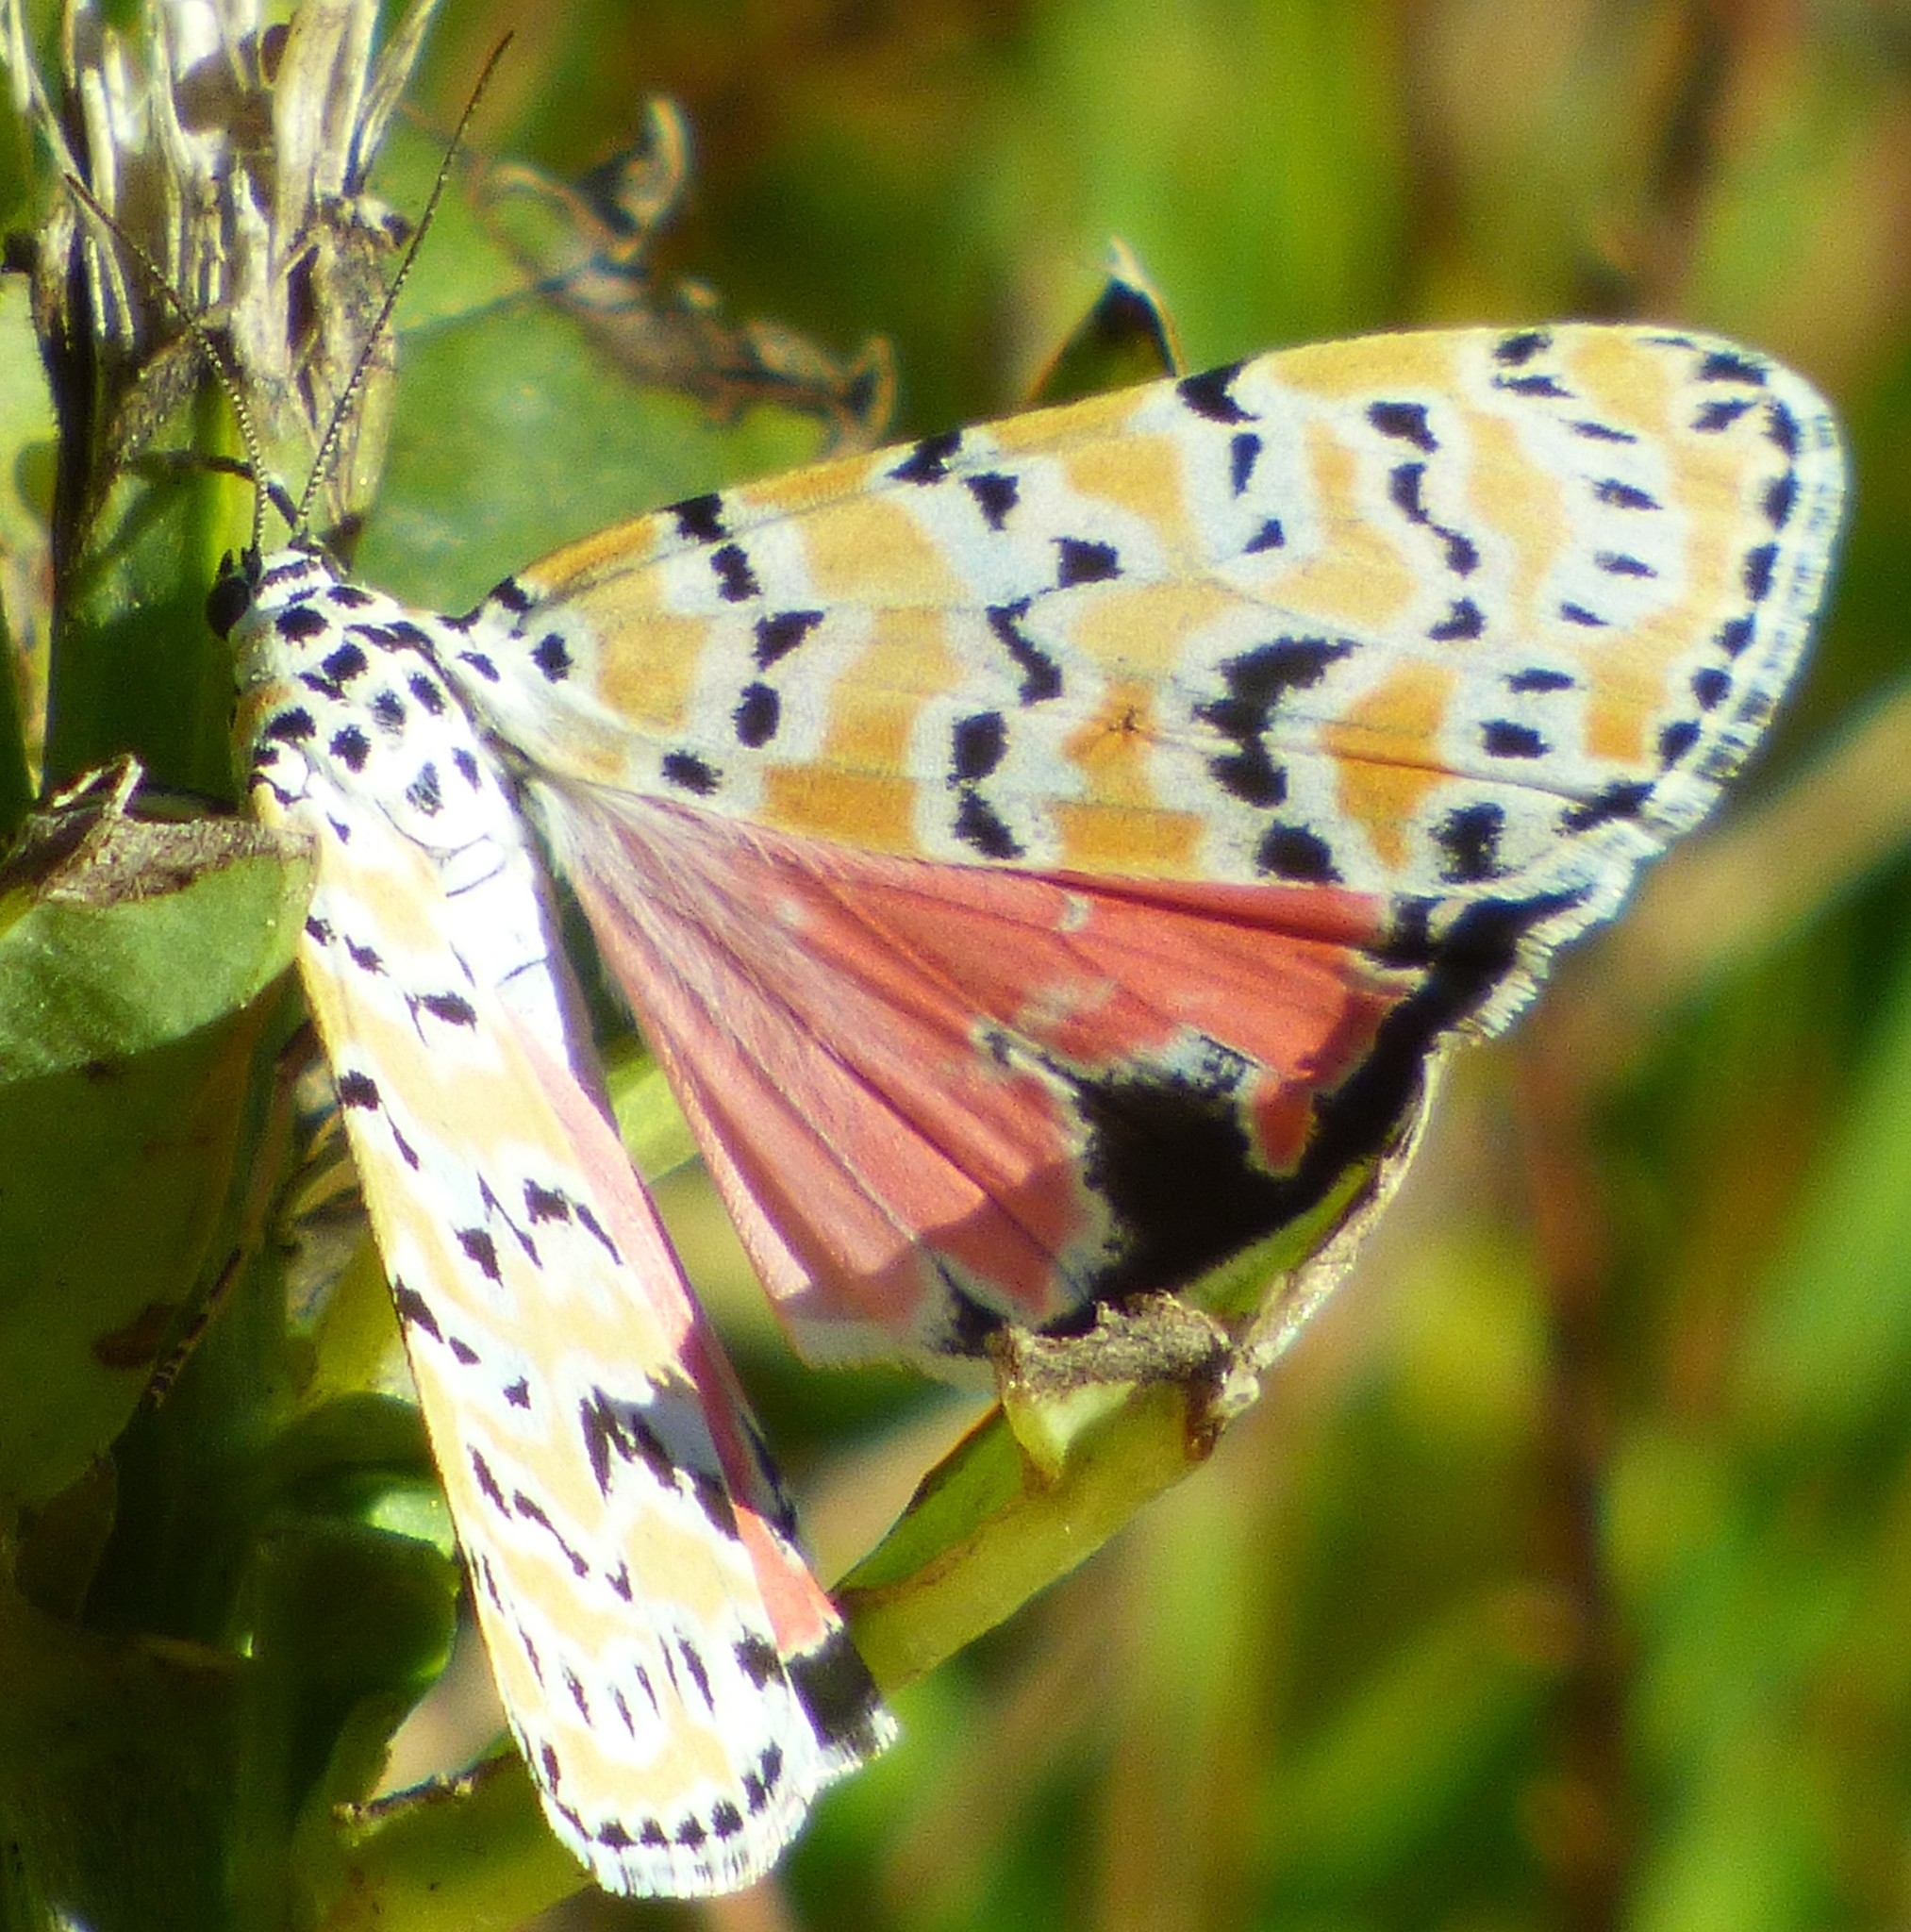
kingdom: Animalia
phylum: Arthropoda
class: Insecta
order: Lepidoptera
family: Erebidae
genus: Utetheisa
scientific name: Utetheisa ornatrix
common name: Beautiful utetheisa
